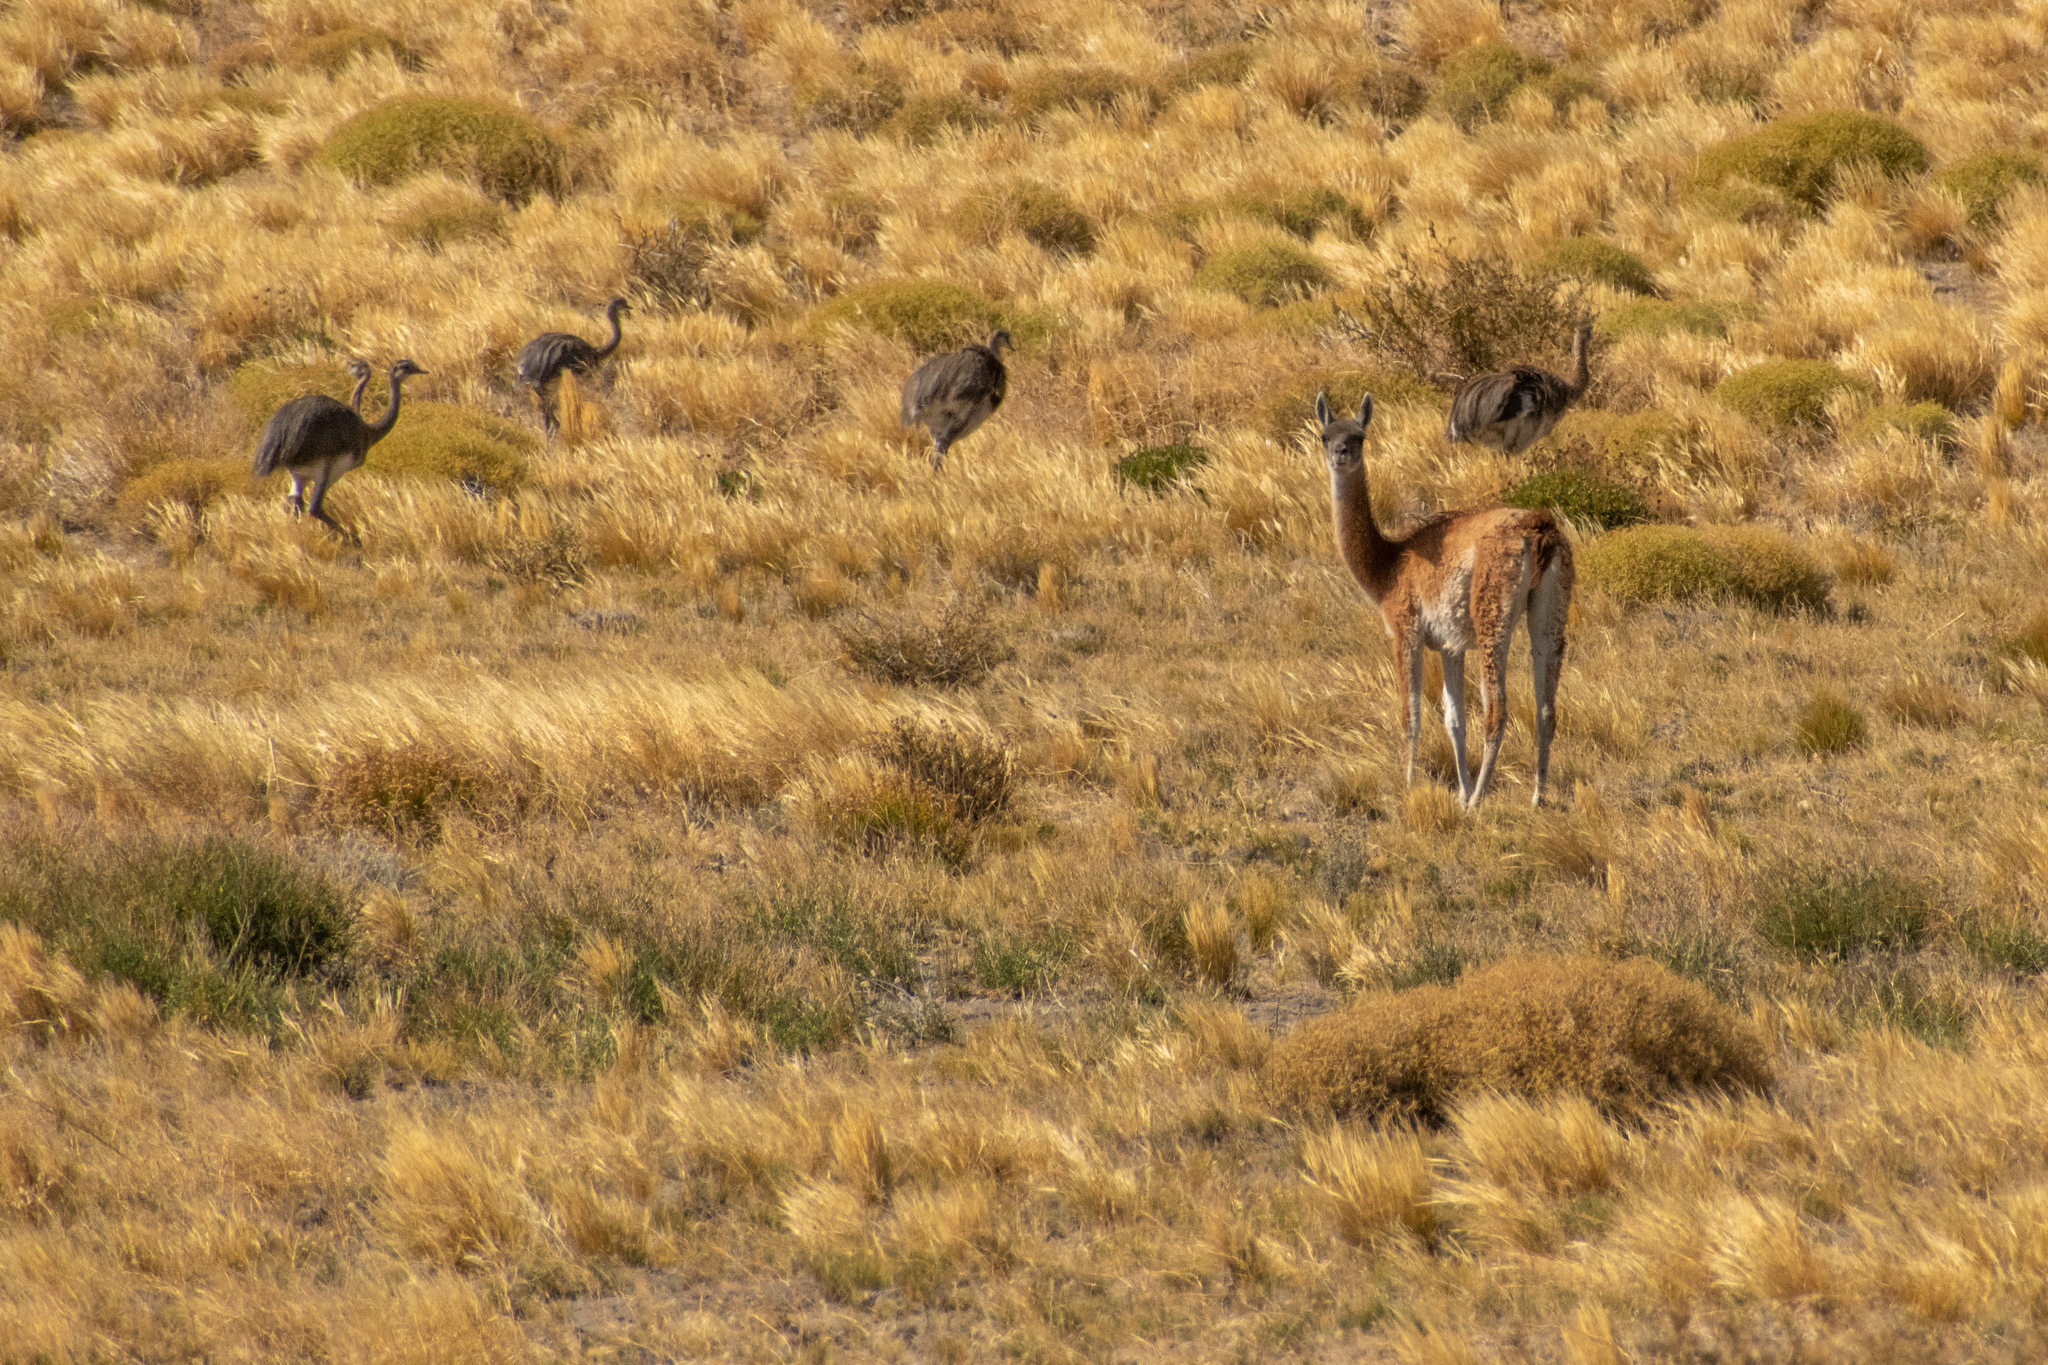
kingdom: Animalia
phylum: Chordata
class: Mammalia
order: Artiodactyla
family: Camelidae
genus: Lama
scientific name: Lama glama
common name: Llama
